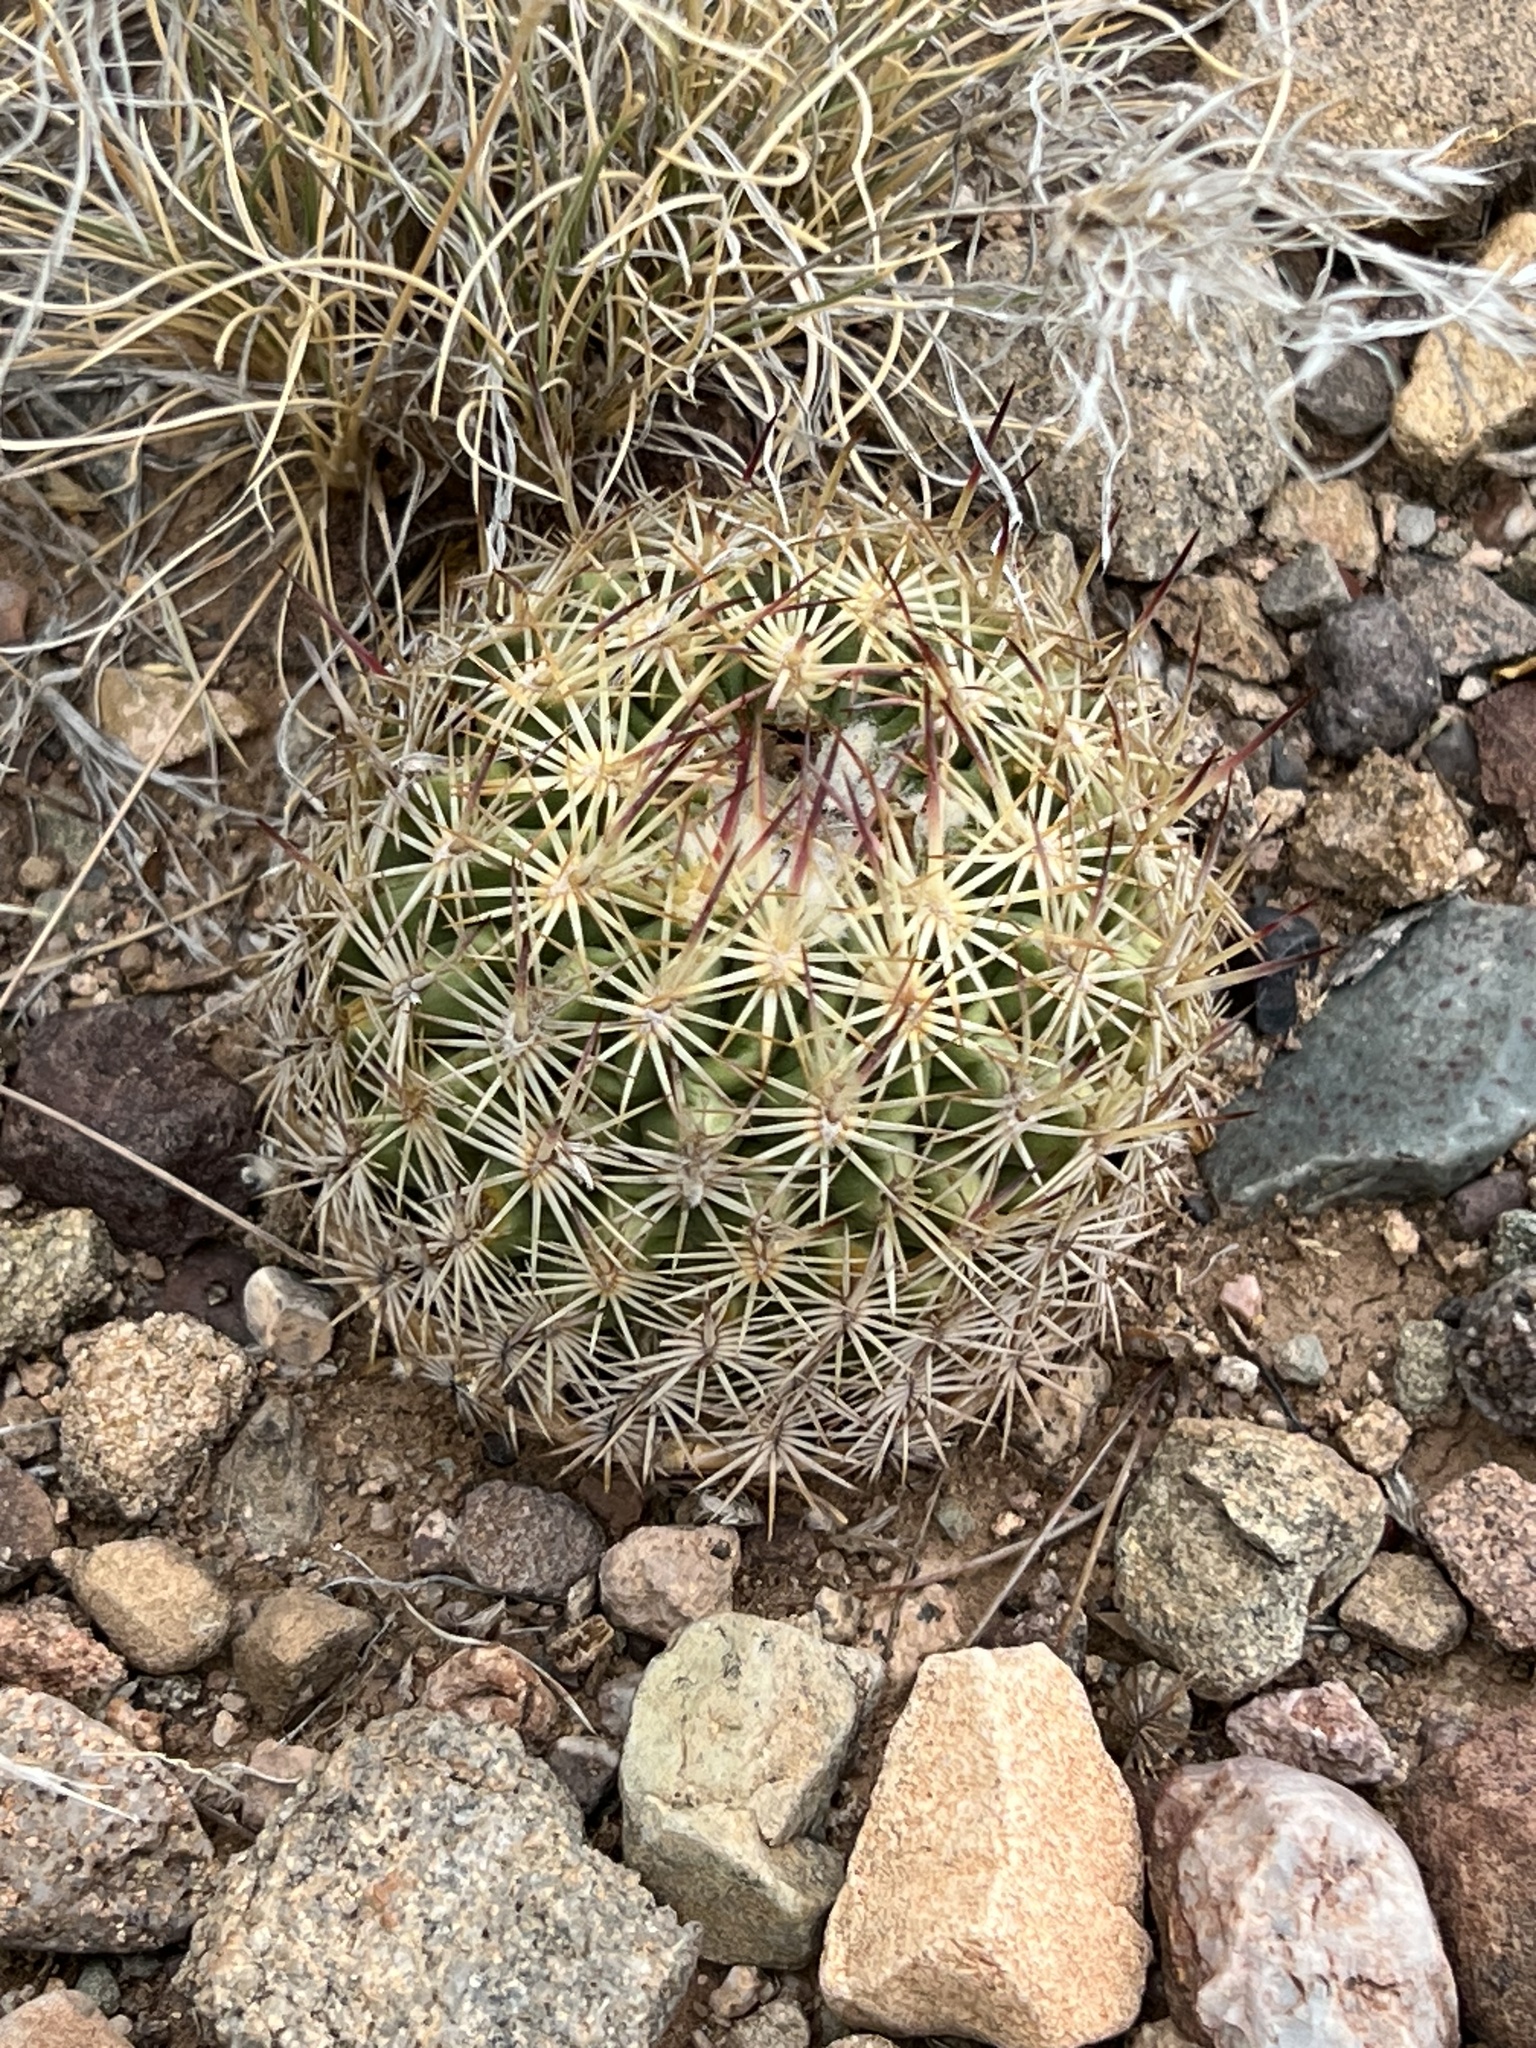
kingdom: Plantae
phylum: Tracheophyta
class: Magnoliopsida
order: Caryophyllales
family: Cactaceae
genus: Sclerocactus
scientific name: Sclerocactus johnsonii
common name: Eight-spine fishhook cactus
